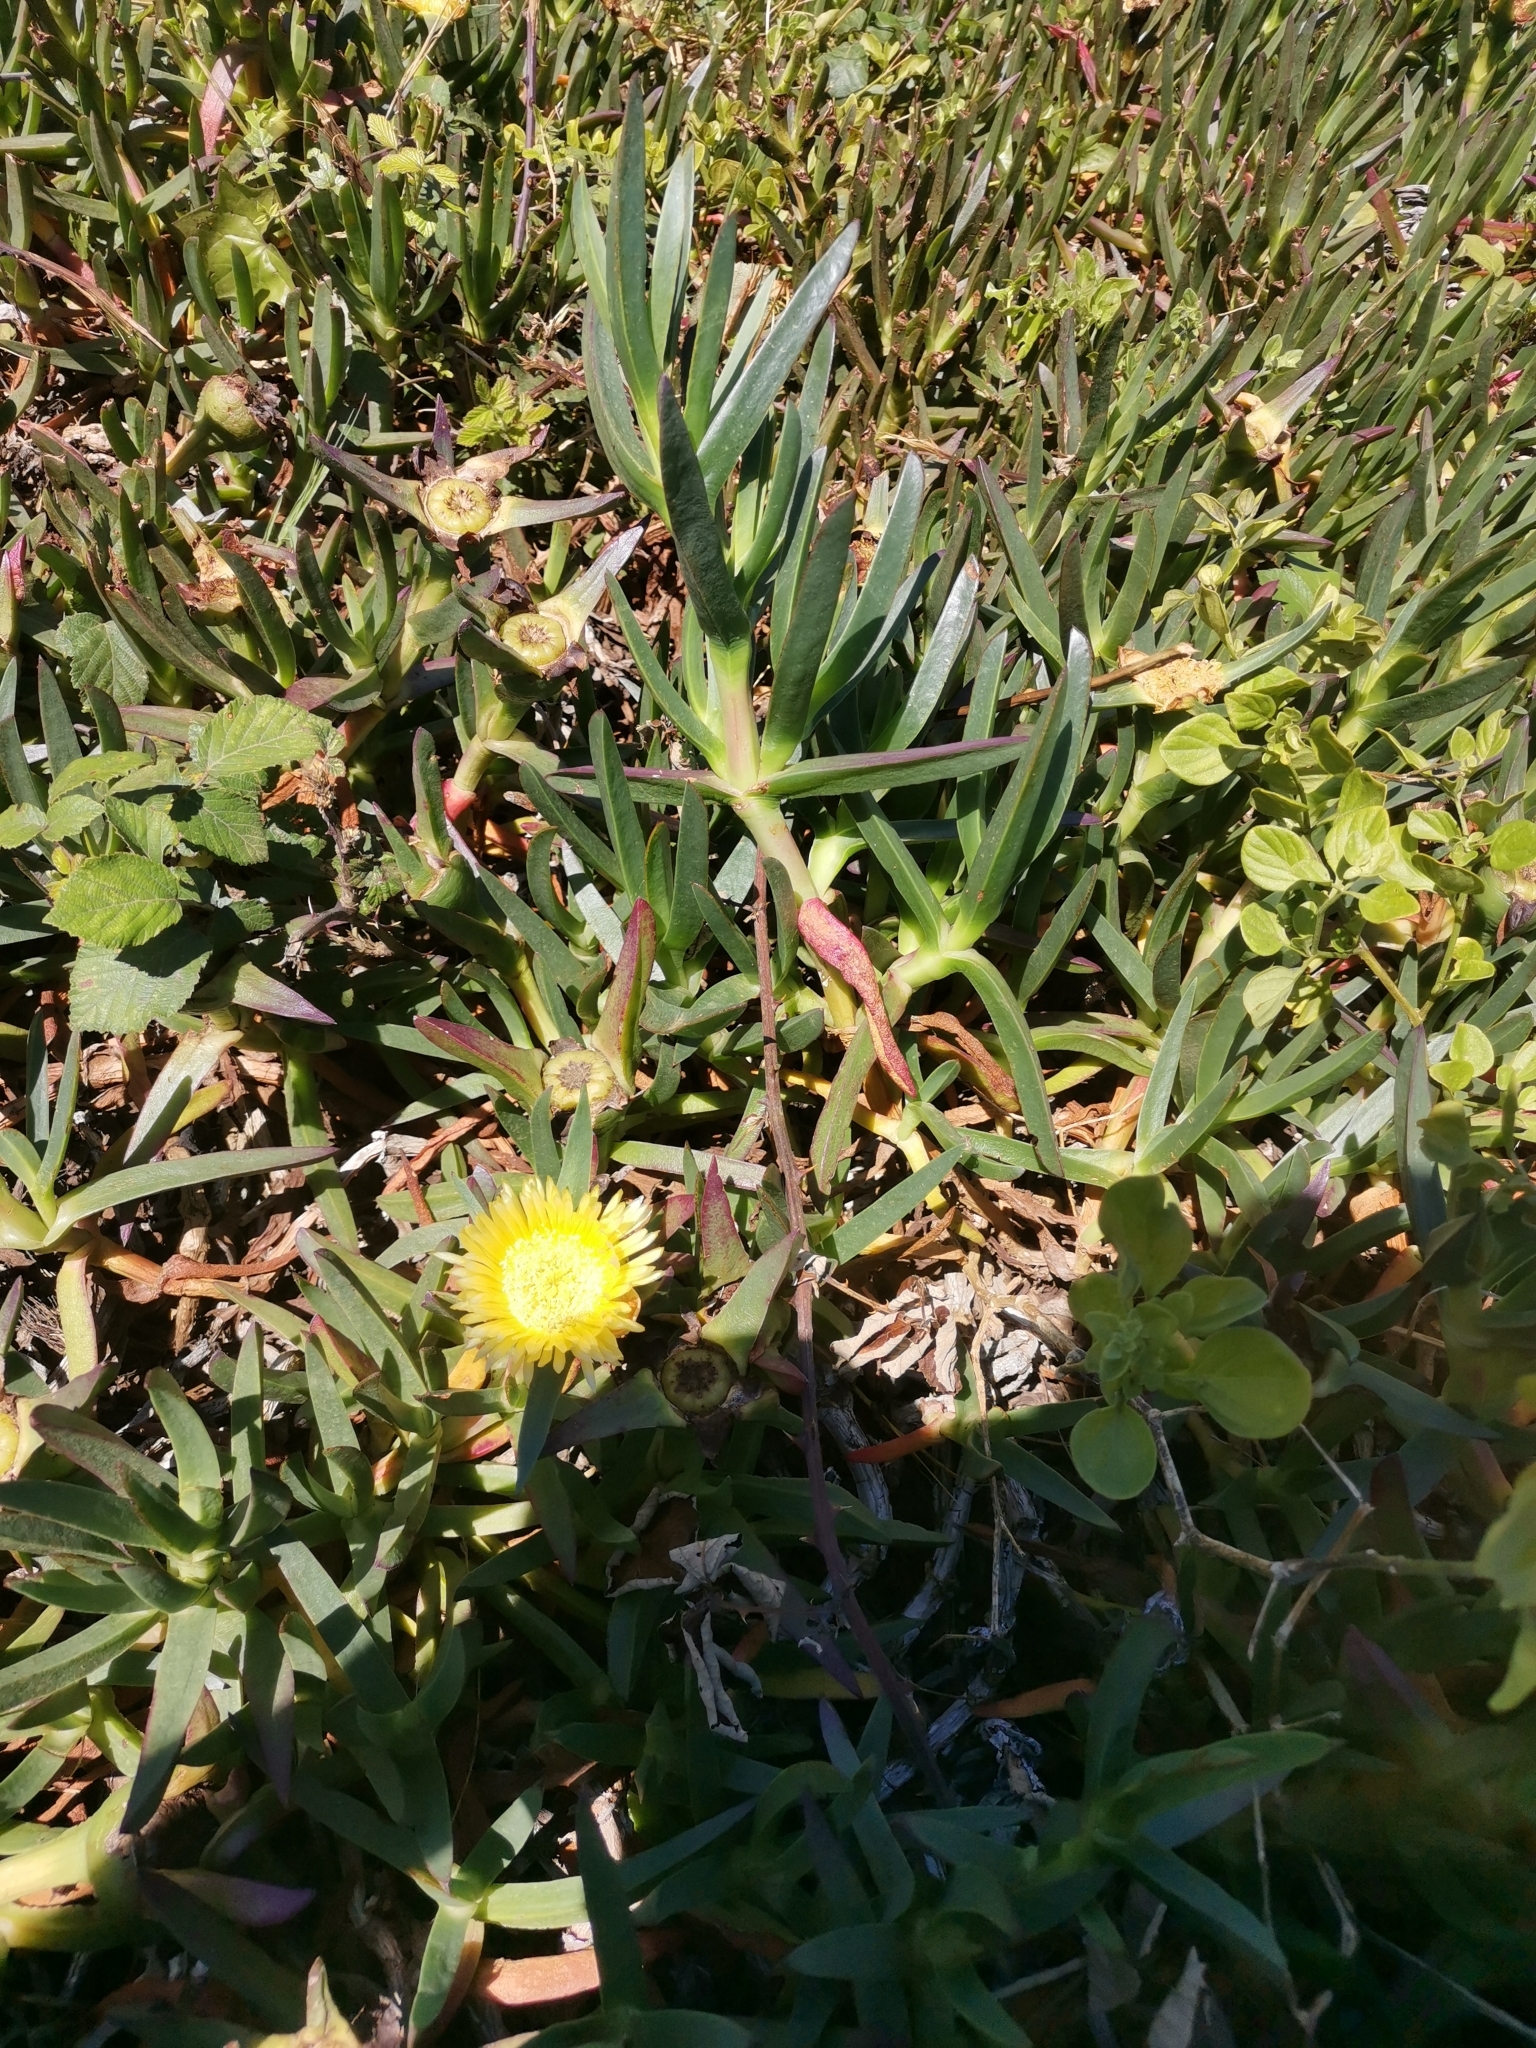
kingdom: Plantae
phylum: Tracheophyta
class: Magnoliopsida
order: Caryophyllales
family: Aizoaceae
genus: Carpobrotus
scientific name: Carpobrotus edulis
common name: Hottentot-fig
